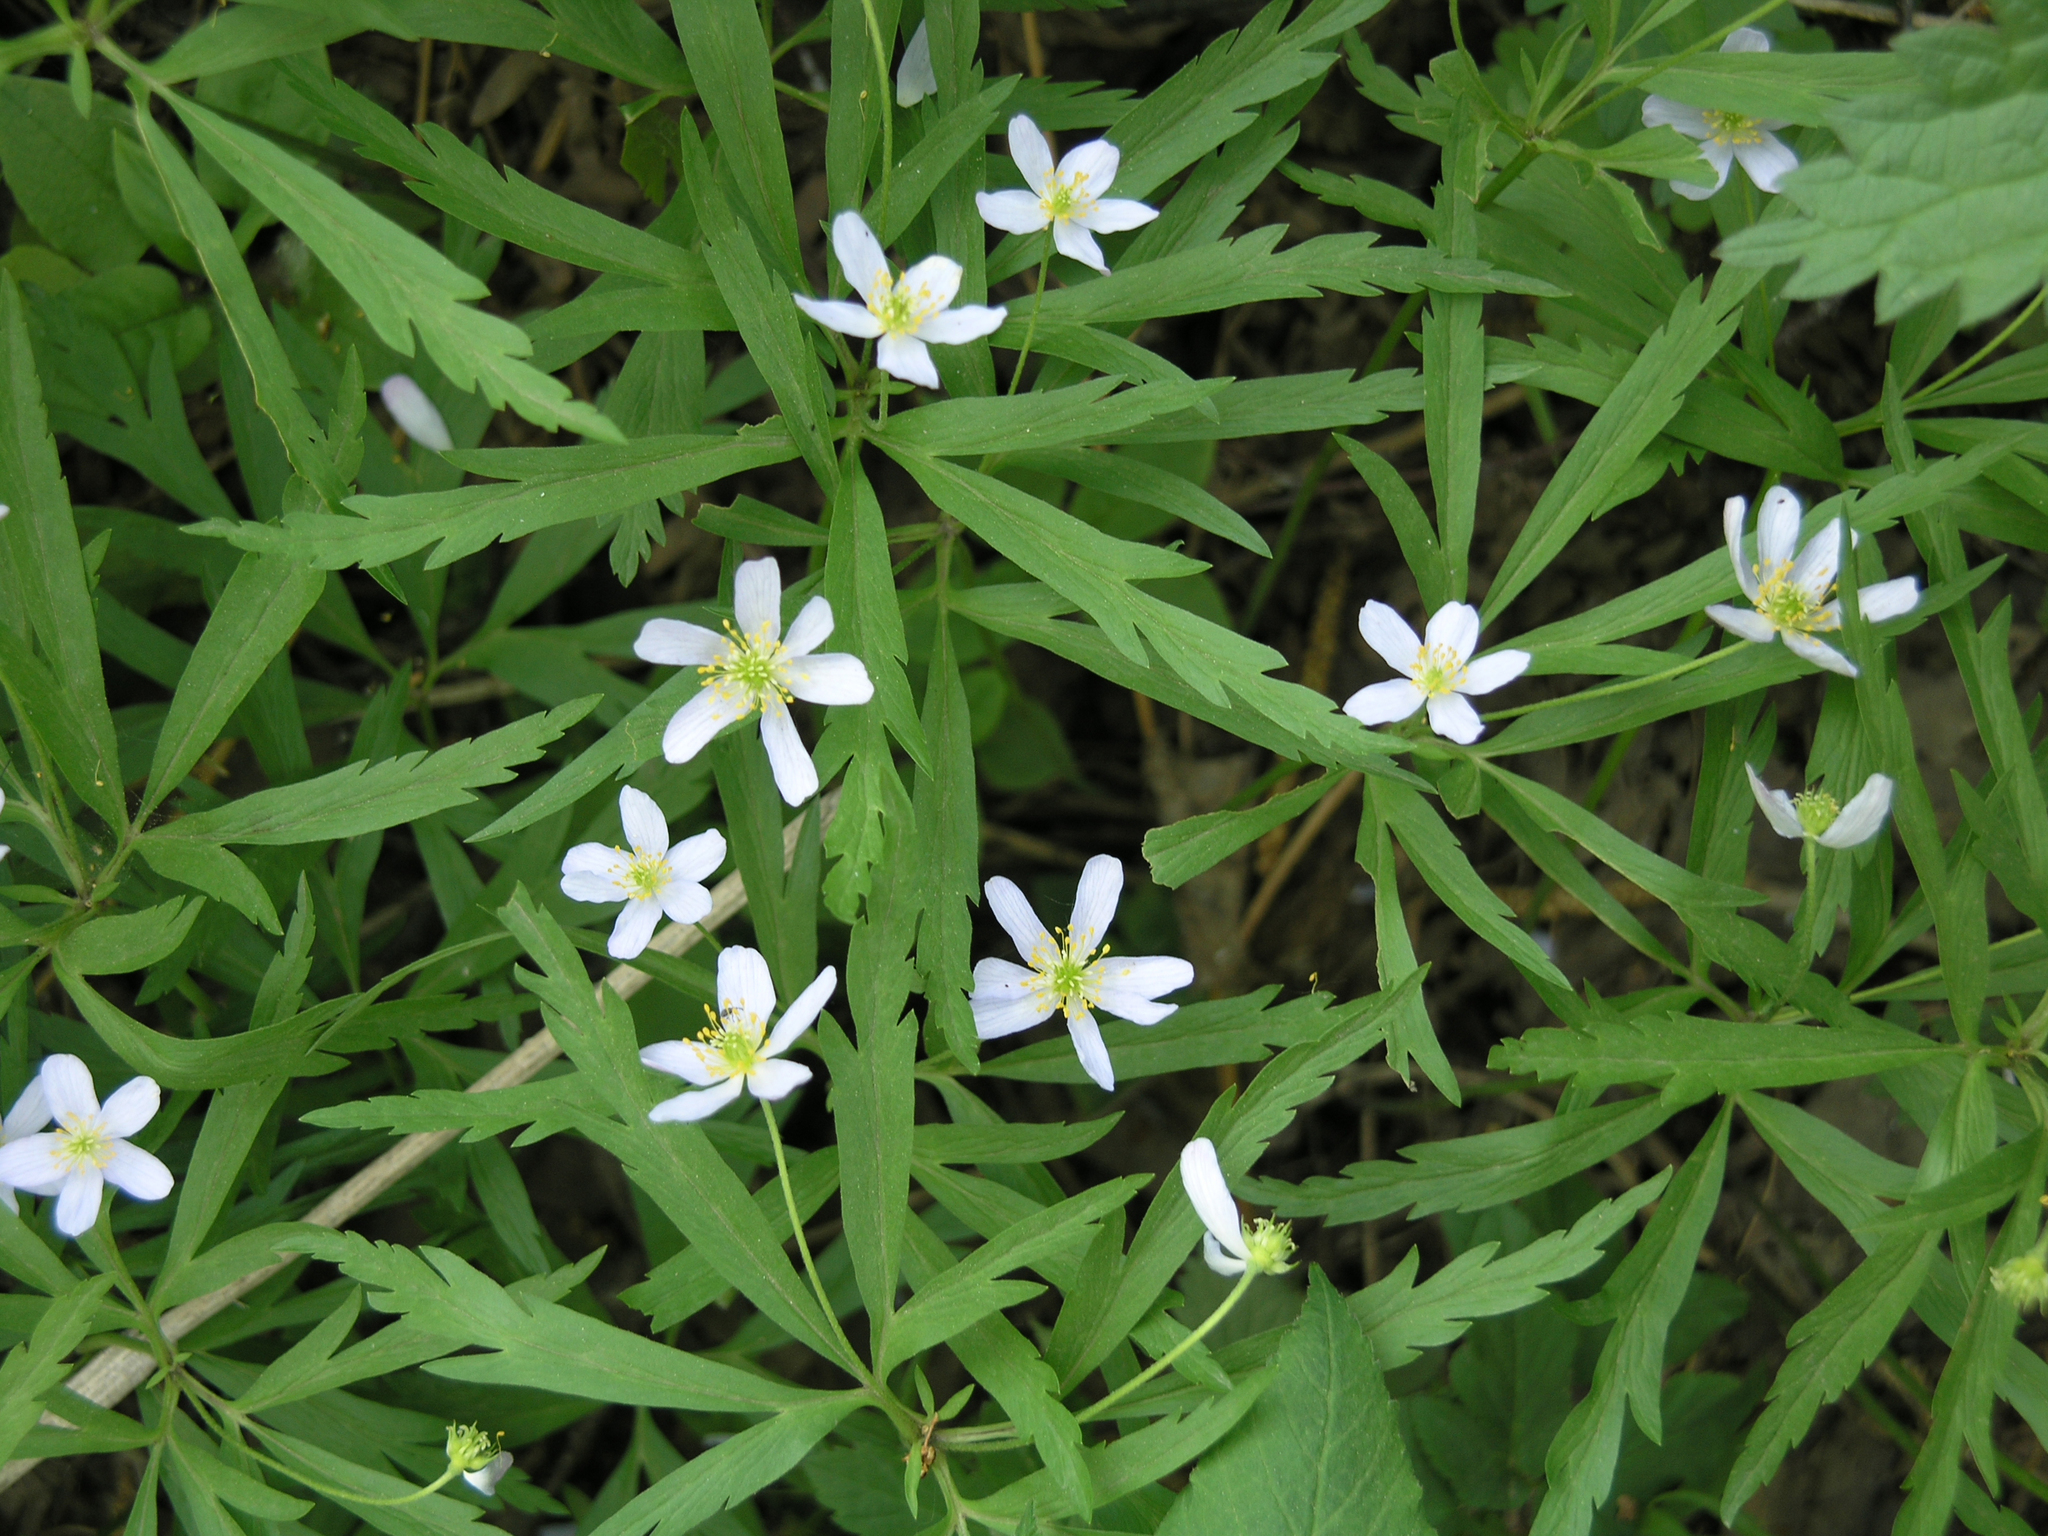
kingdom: Plantae
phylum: Tracheophyta
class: Magnoliopsida
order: Ranunculales
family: Ranunculaceae
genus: Anemone
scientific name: Anemone caerulea
